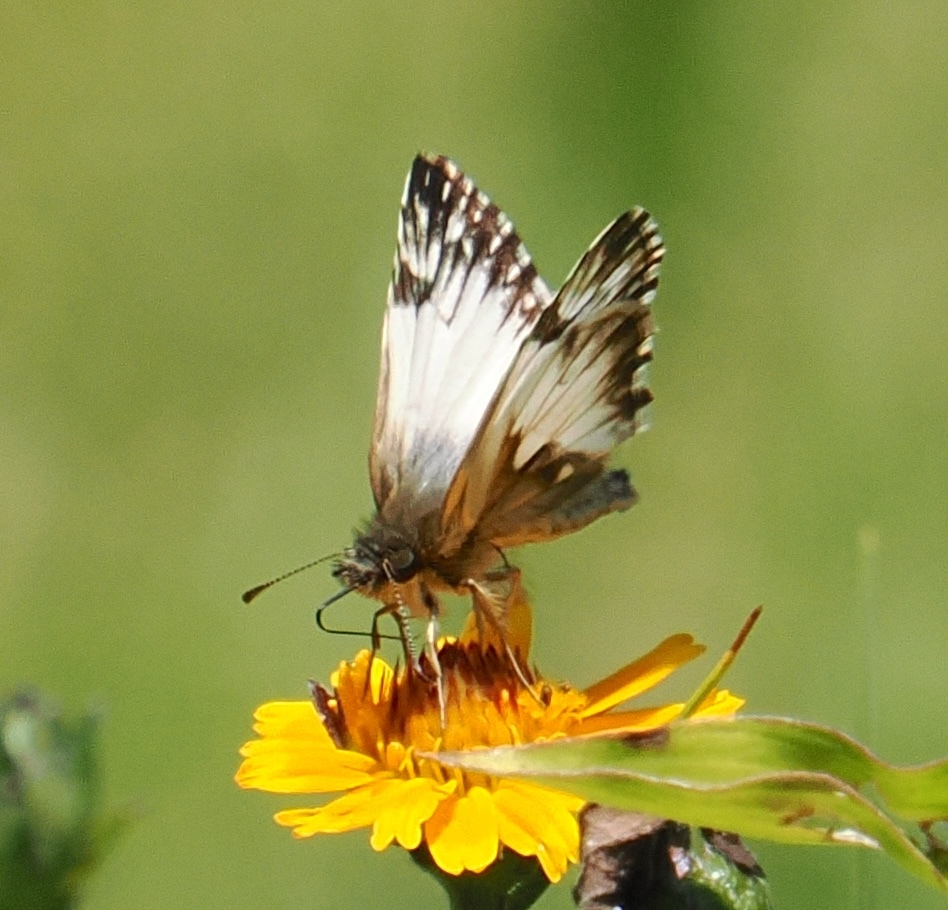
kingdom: Animalia
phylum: Arthropoda
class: Insecta
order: Lepidoptera
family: Hesperiidae
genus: Heliopetes
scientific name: Heliopetes omrina
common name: Stained white-skipper
